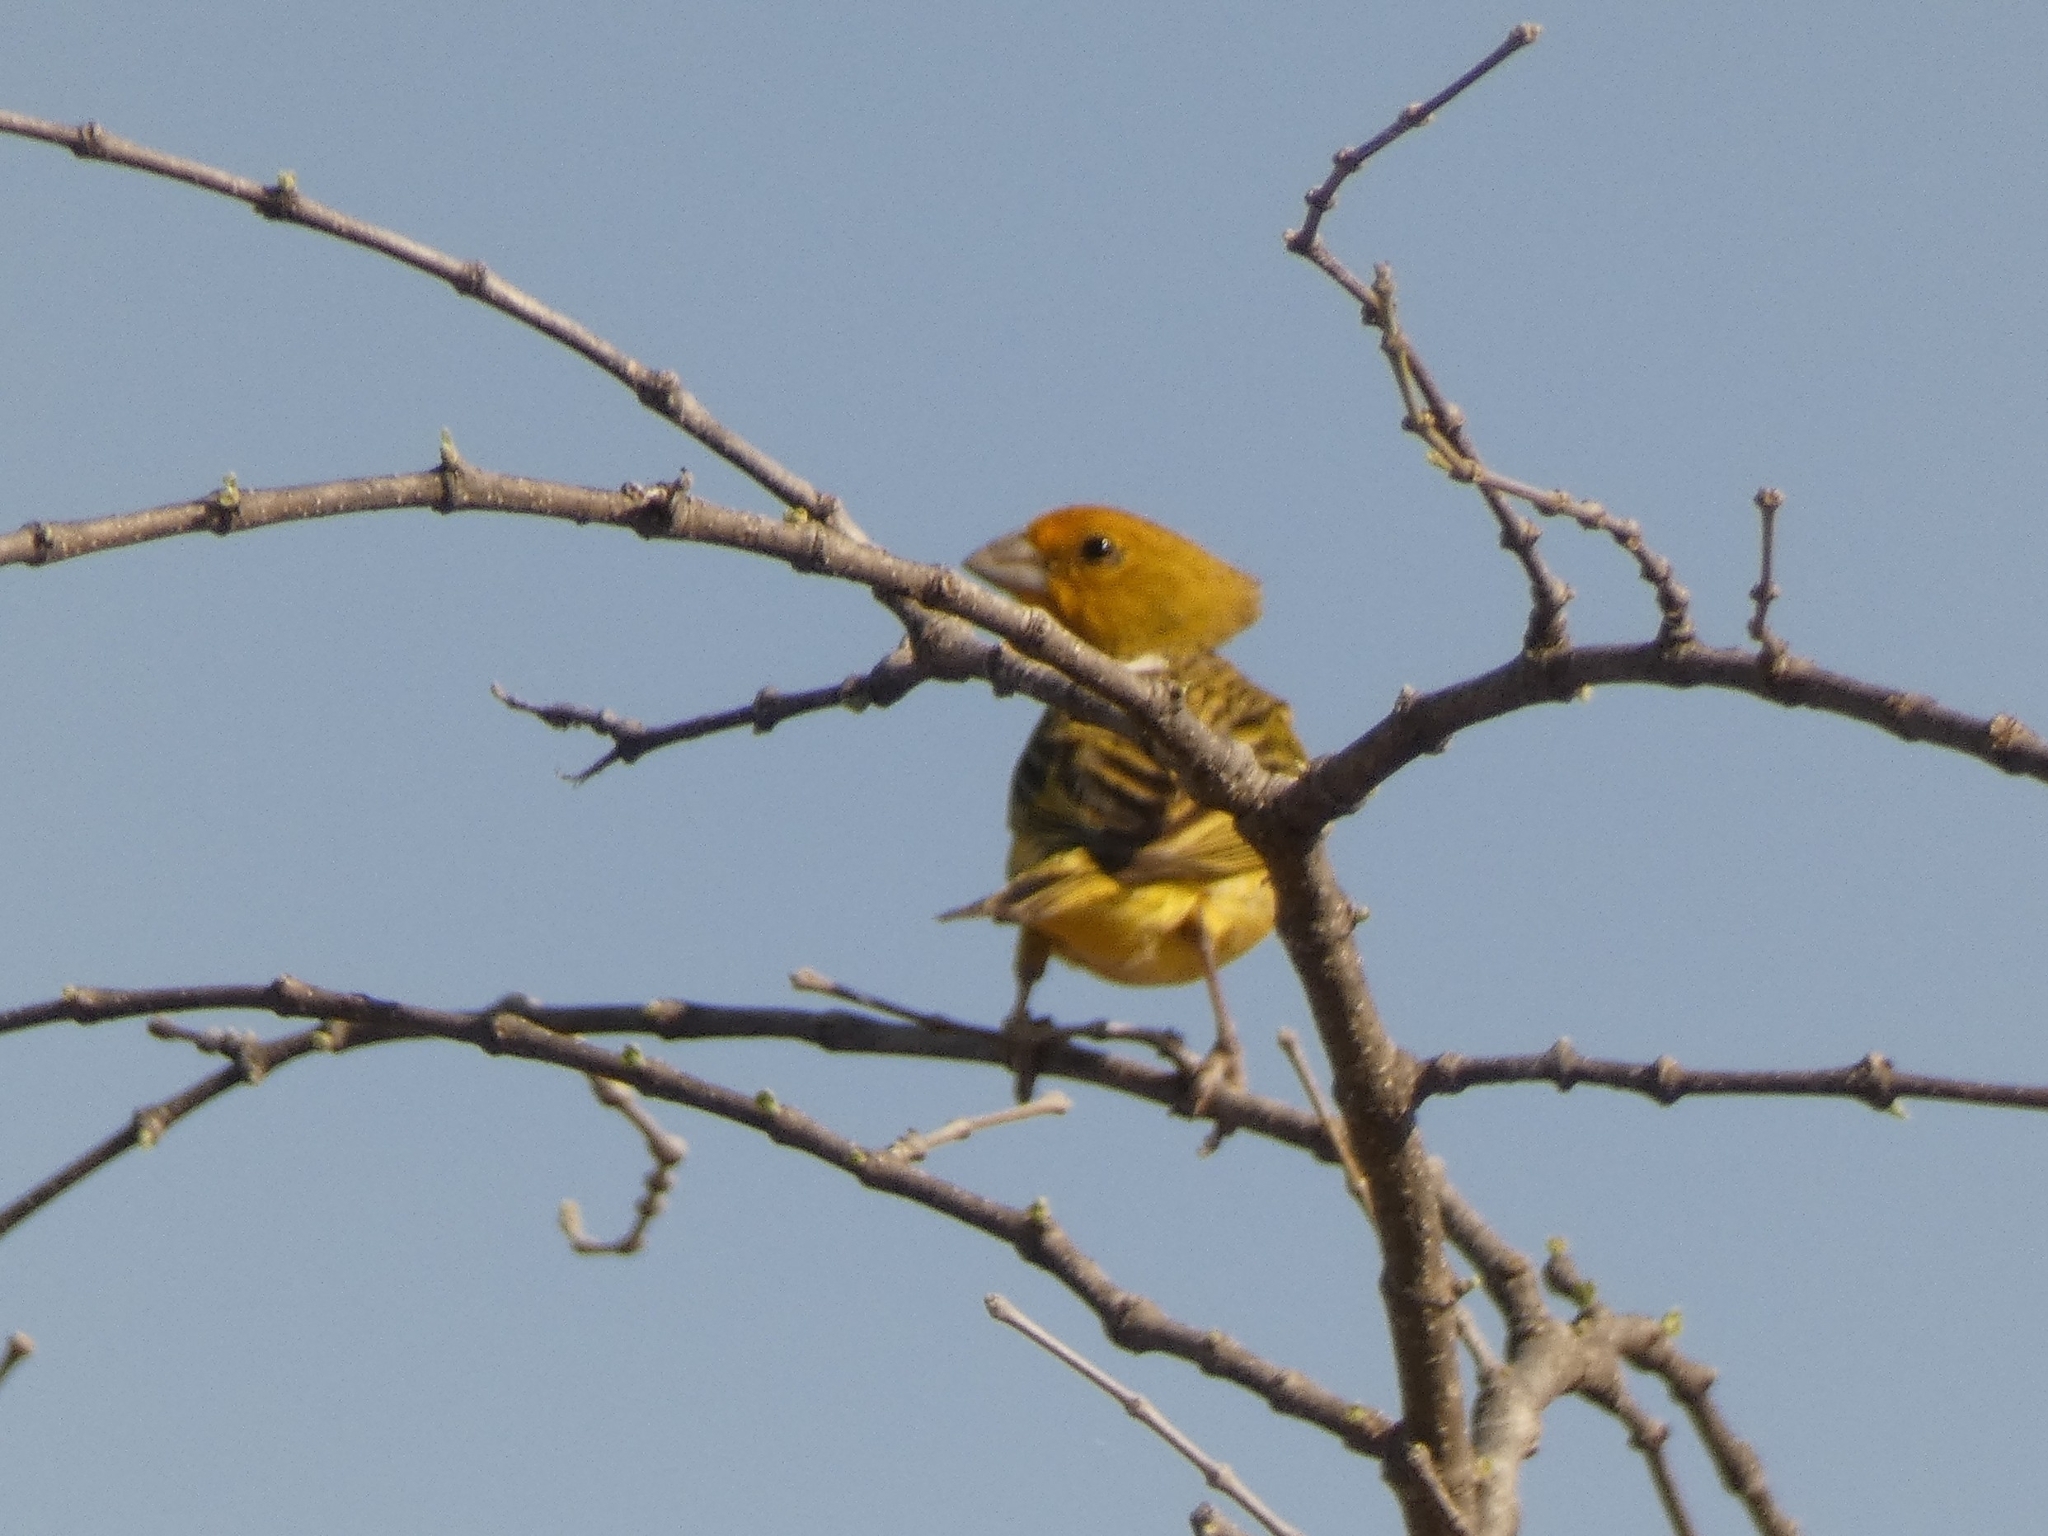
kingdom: Animalia
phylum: Chordata
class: Aves
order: Passeriformes
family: Thraupidae
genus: Sicalis
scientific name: Sicalis flaveola
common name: Saffron finch
